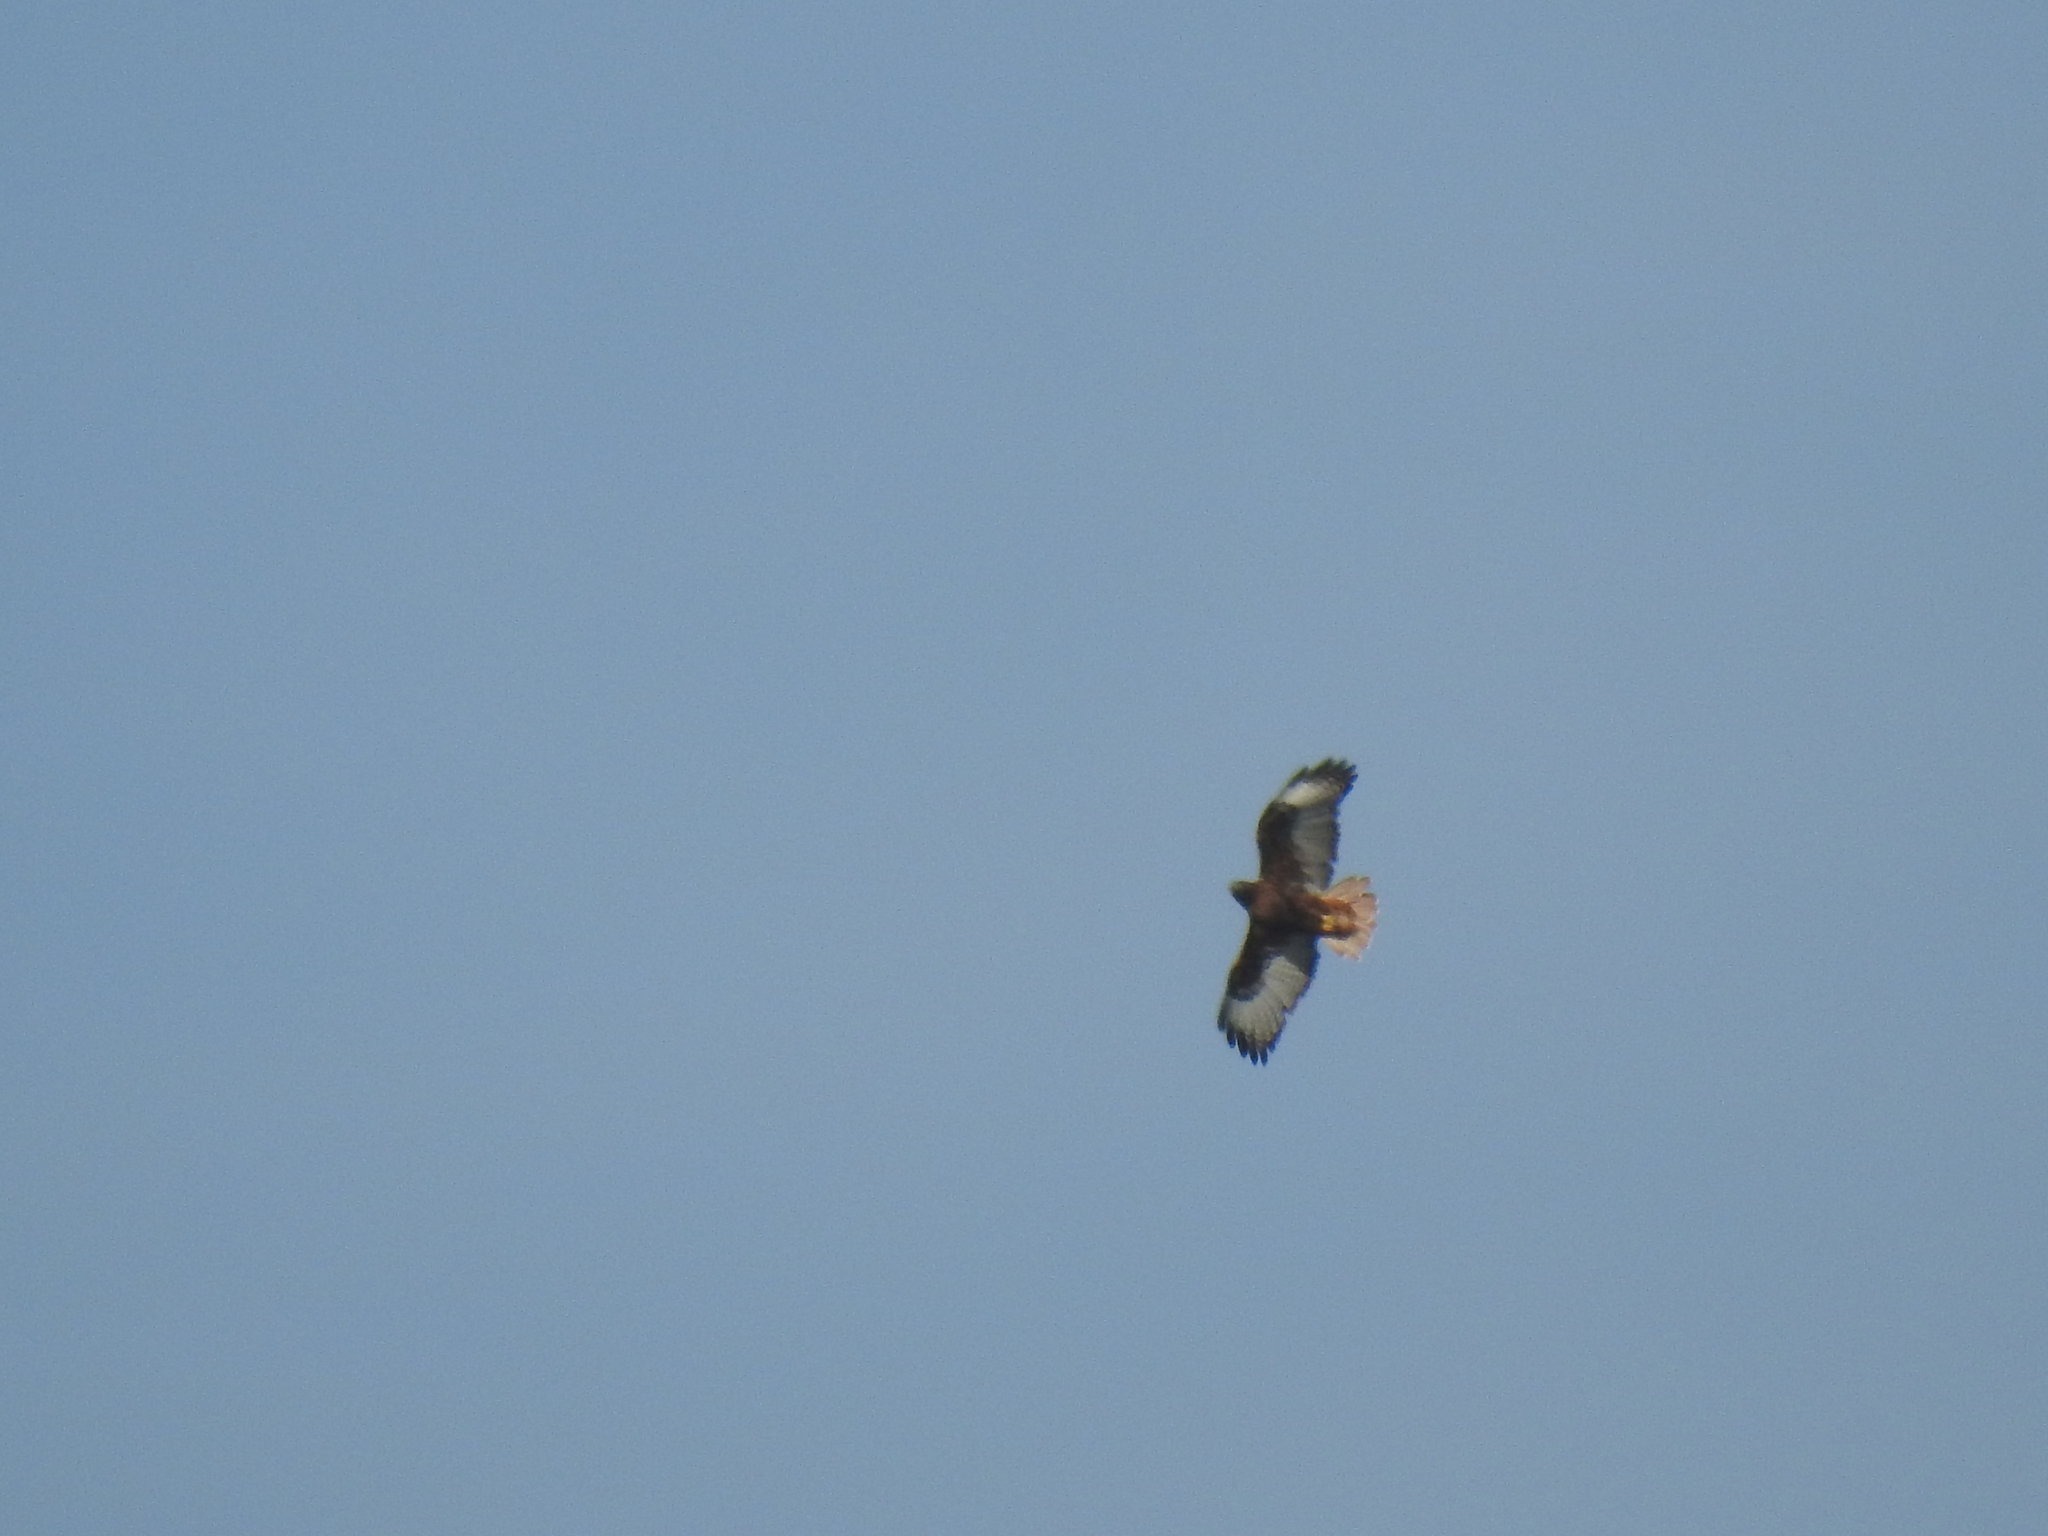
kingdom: Animalia
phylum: Chordata
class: Aves
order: Accipitriformes
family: Accipitridae
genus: Buteo
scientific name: Buteo jamaicensis
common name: Red-tailed hawk
